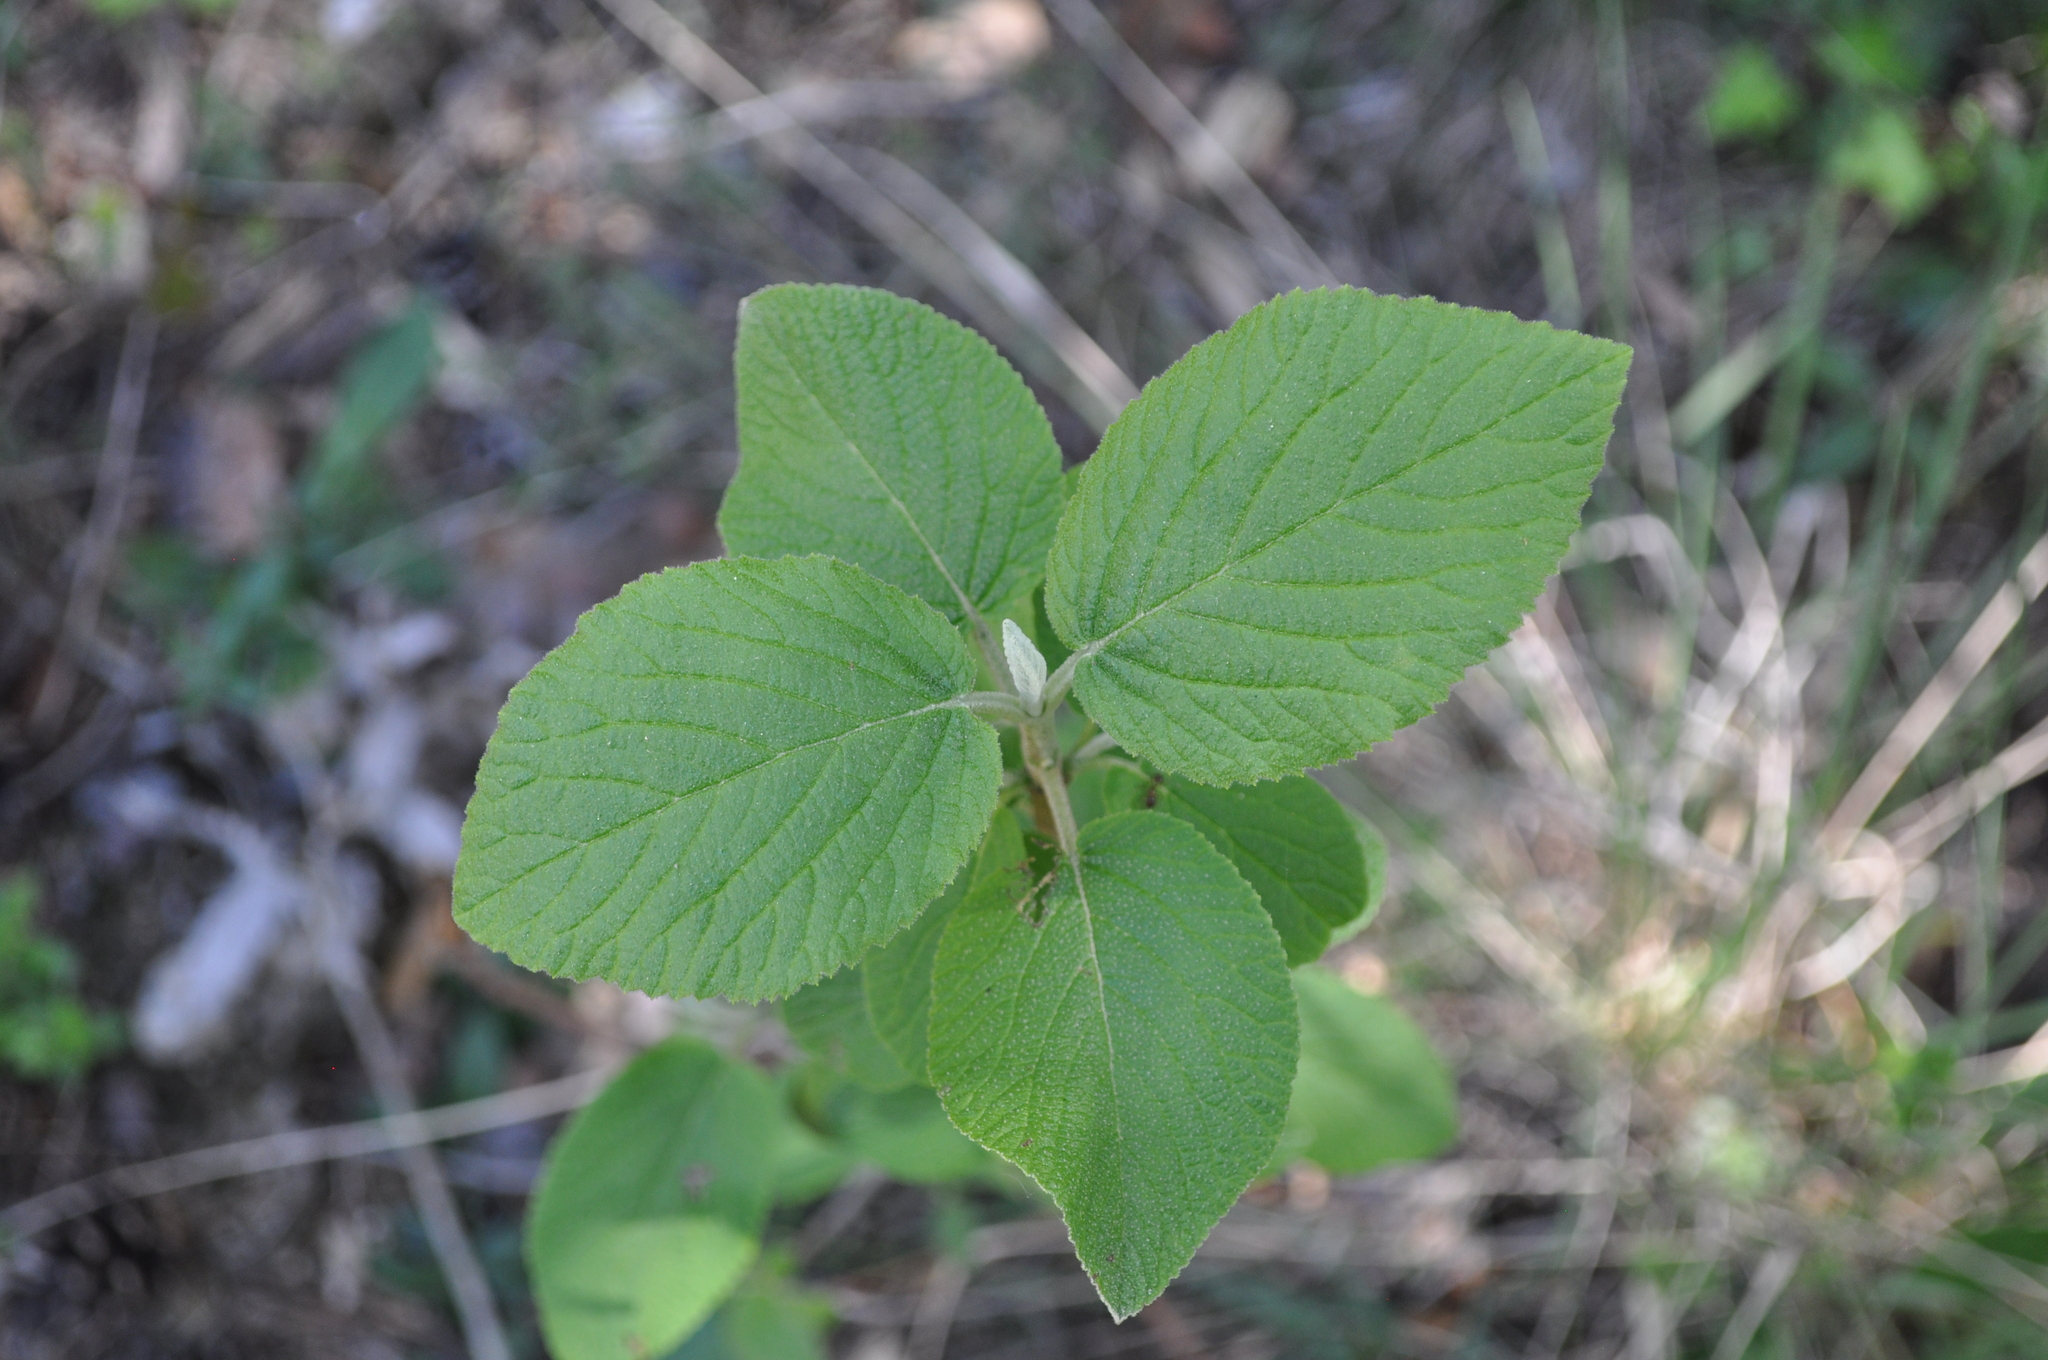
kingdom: Plantae
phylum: Tracheophyta
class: Magnoliopsida
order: Dipsacales
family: Viburnaceae
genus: Viburnum
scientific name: Viburnum lantana
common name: Wayfaring tree
